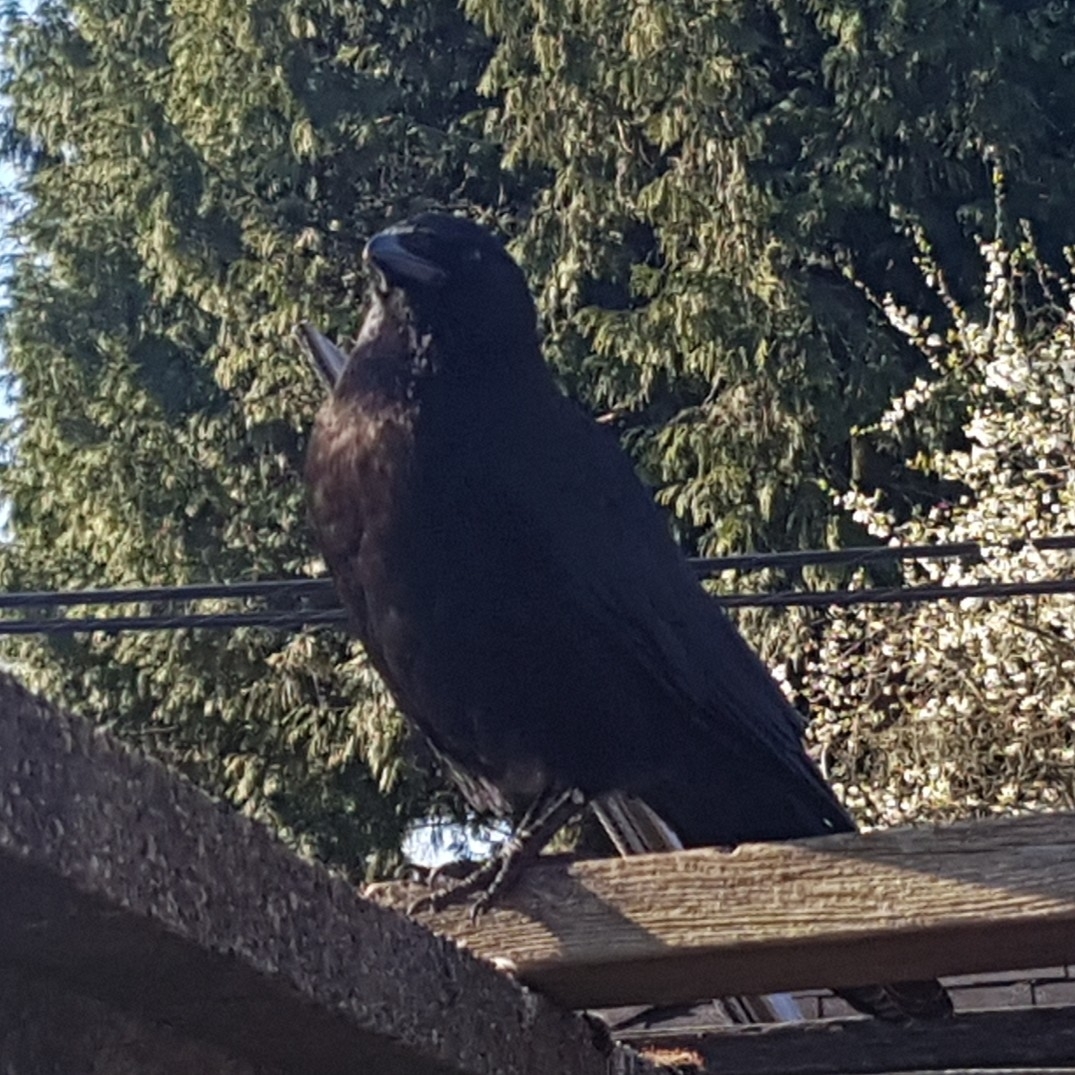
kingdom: Animalia
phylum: Chordata
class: Aves
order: Passeriformes
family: Corvidae
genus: Corvus
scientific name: Corvus brachyrhynchos
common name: American crow
